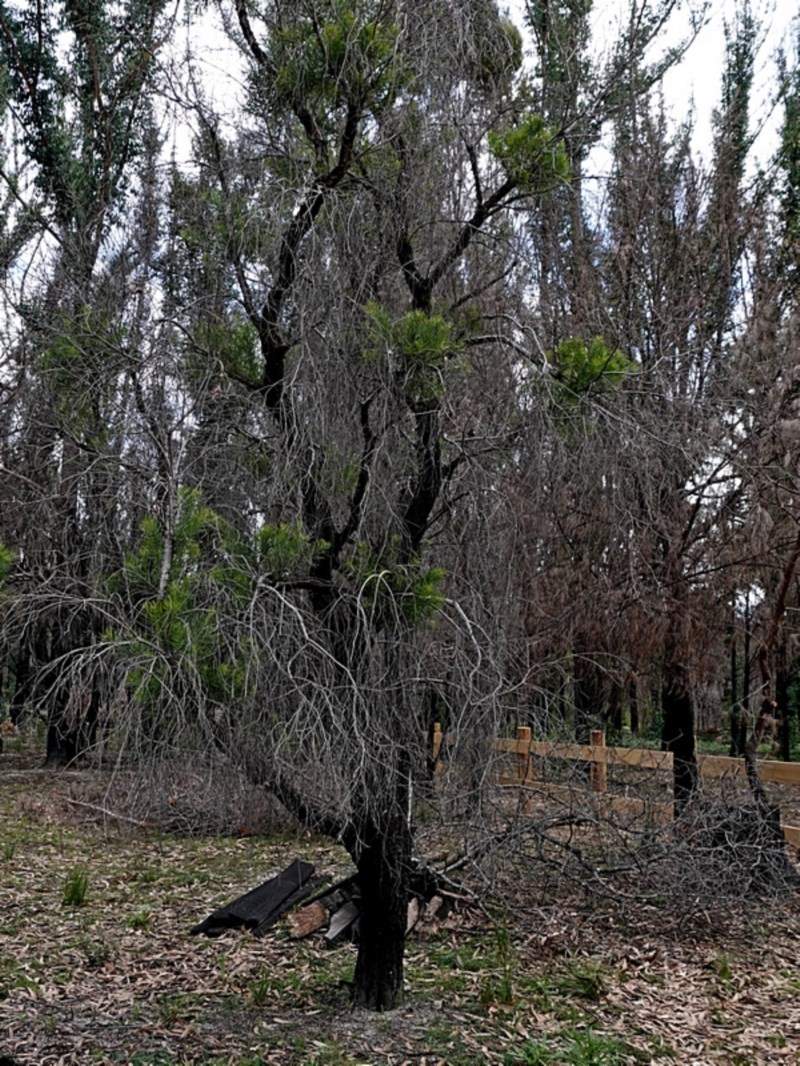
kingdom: Plantae
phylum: Tracheophyta
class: Magnoliopsida
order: Proteales
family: Proteaceae
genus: Persoonia
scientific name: Persoonia linearis
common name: Narrow-leaf geebung
